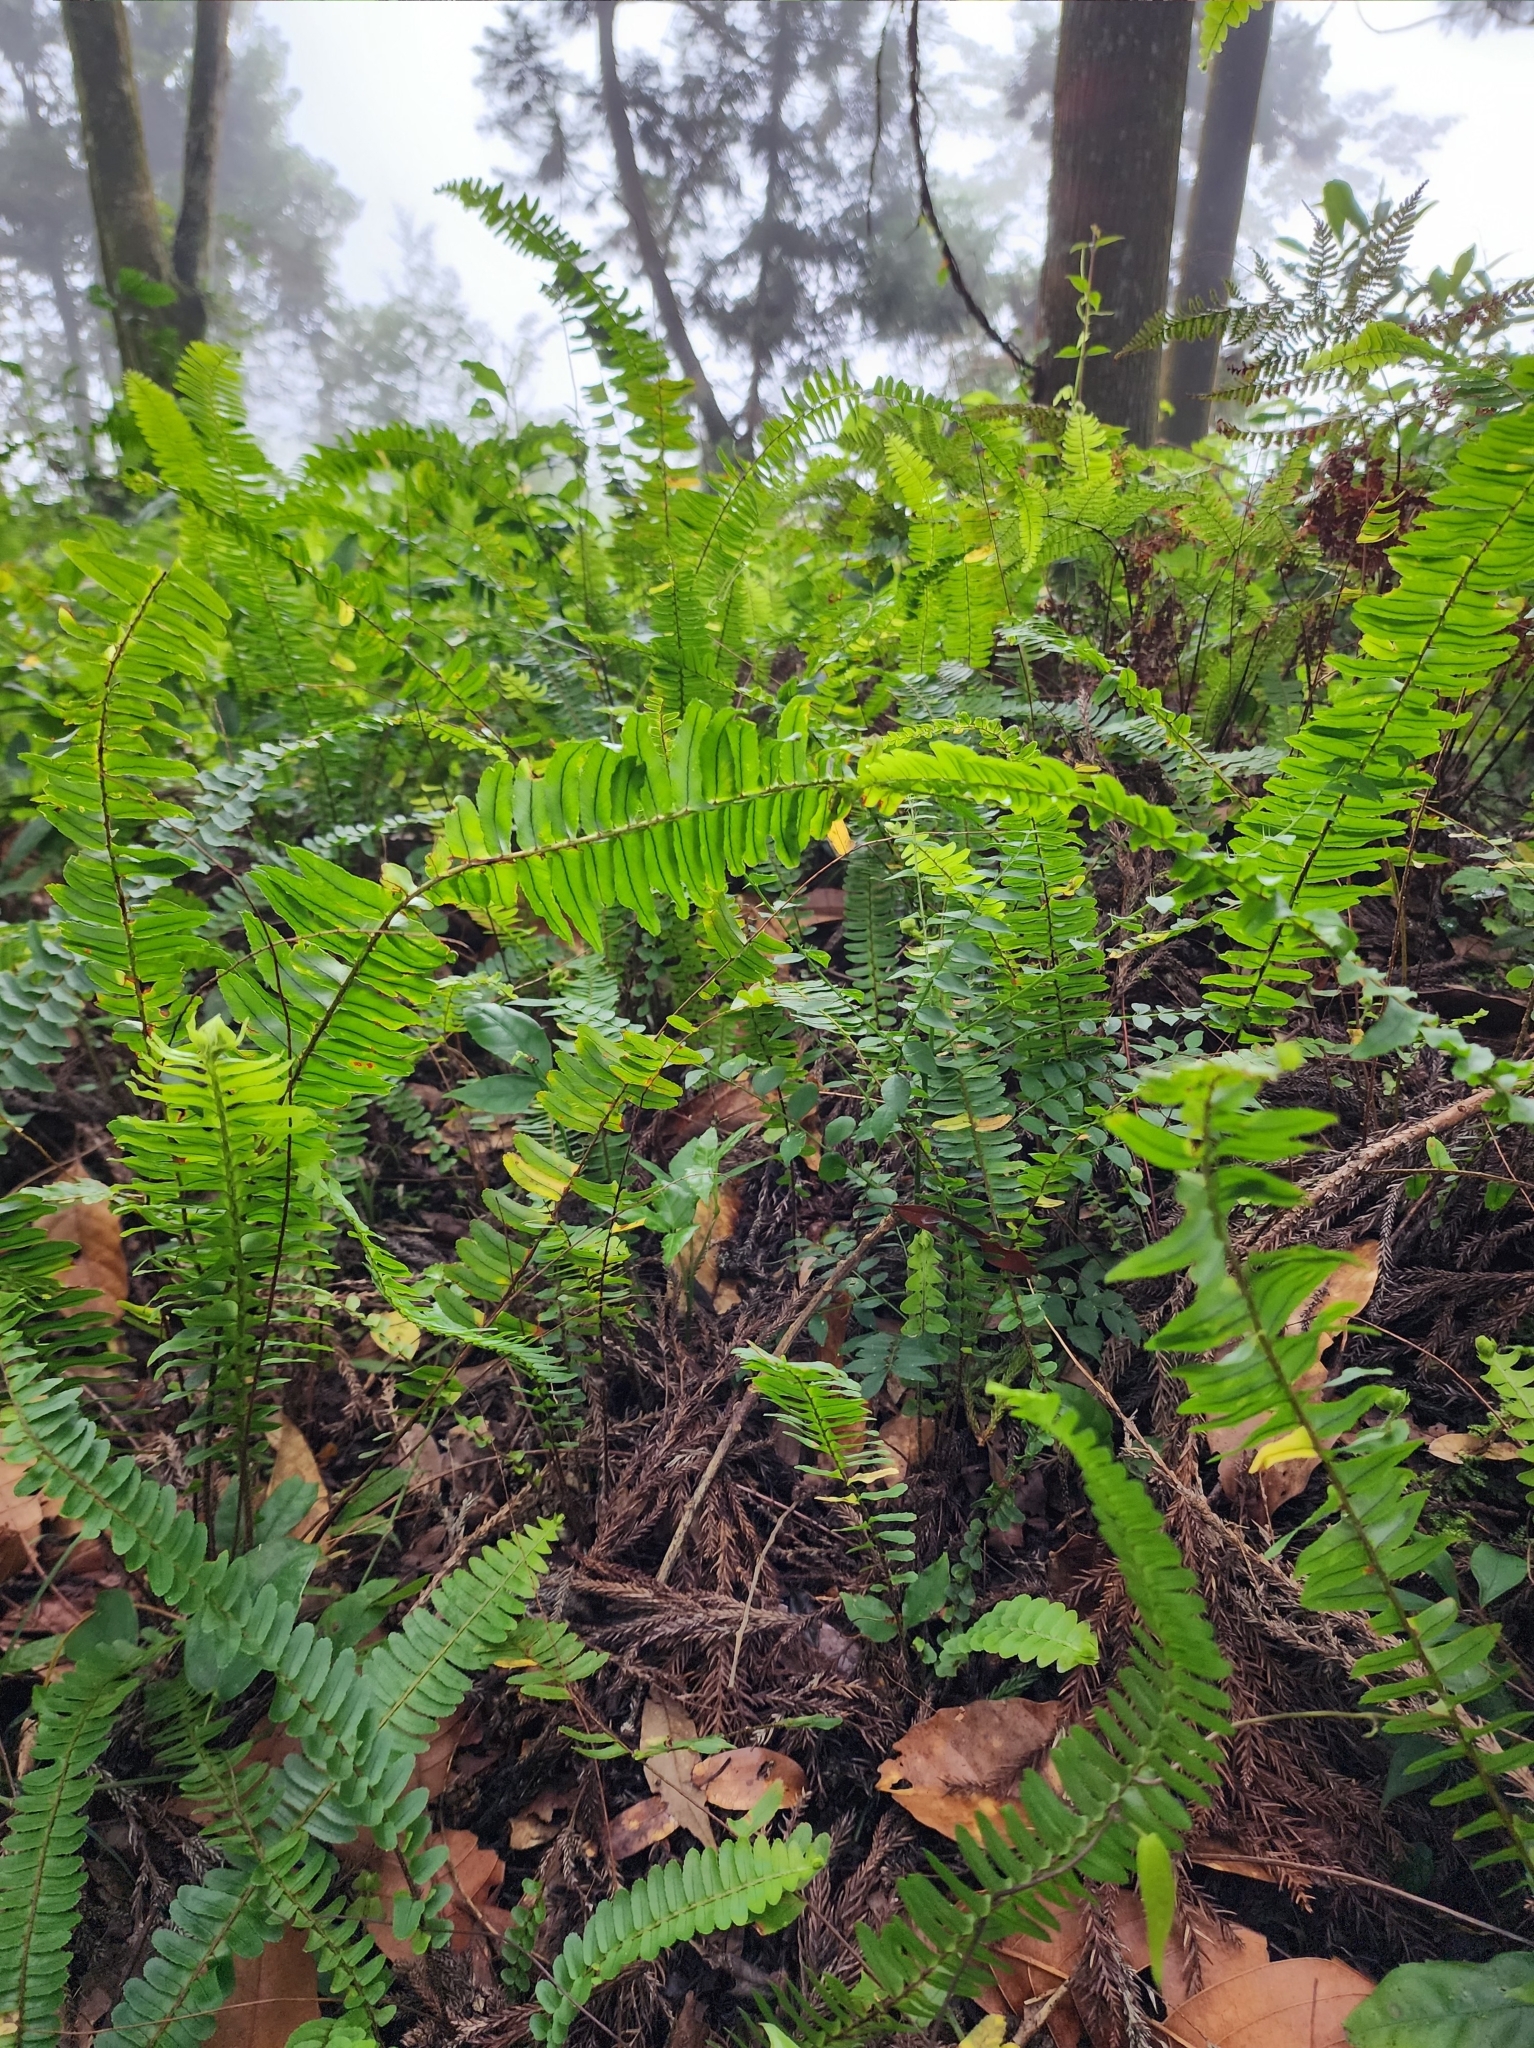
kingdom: Plantae
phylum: Tracheophyta
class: Polypodiopsida
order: Polypodiales
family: Nephrolepidaceae
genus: Nephrolepis
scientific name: Nephrolepis cordifolia
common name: Narrow swordfern
